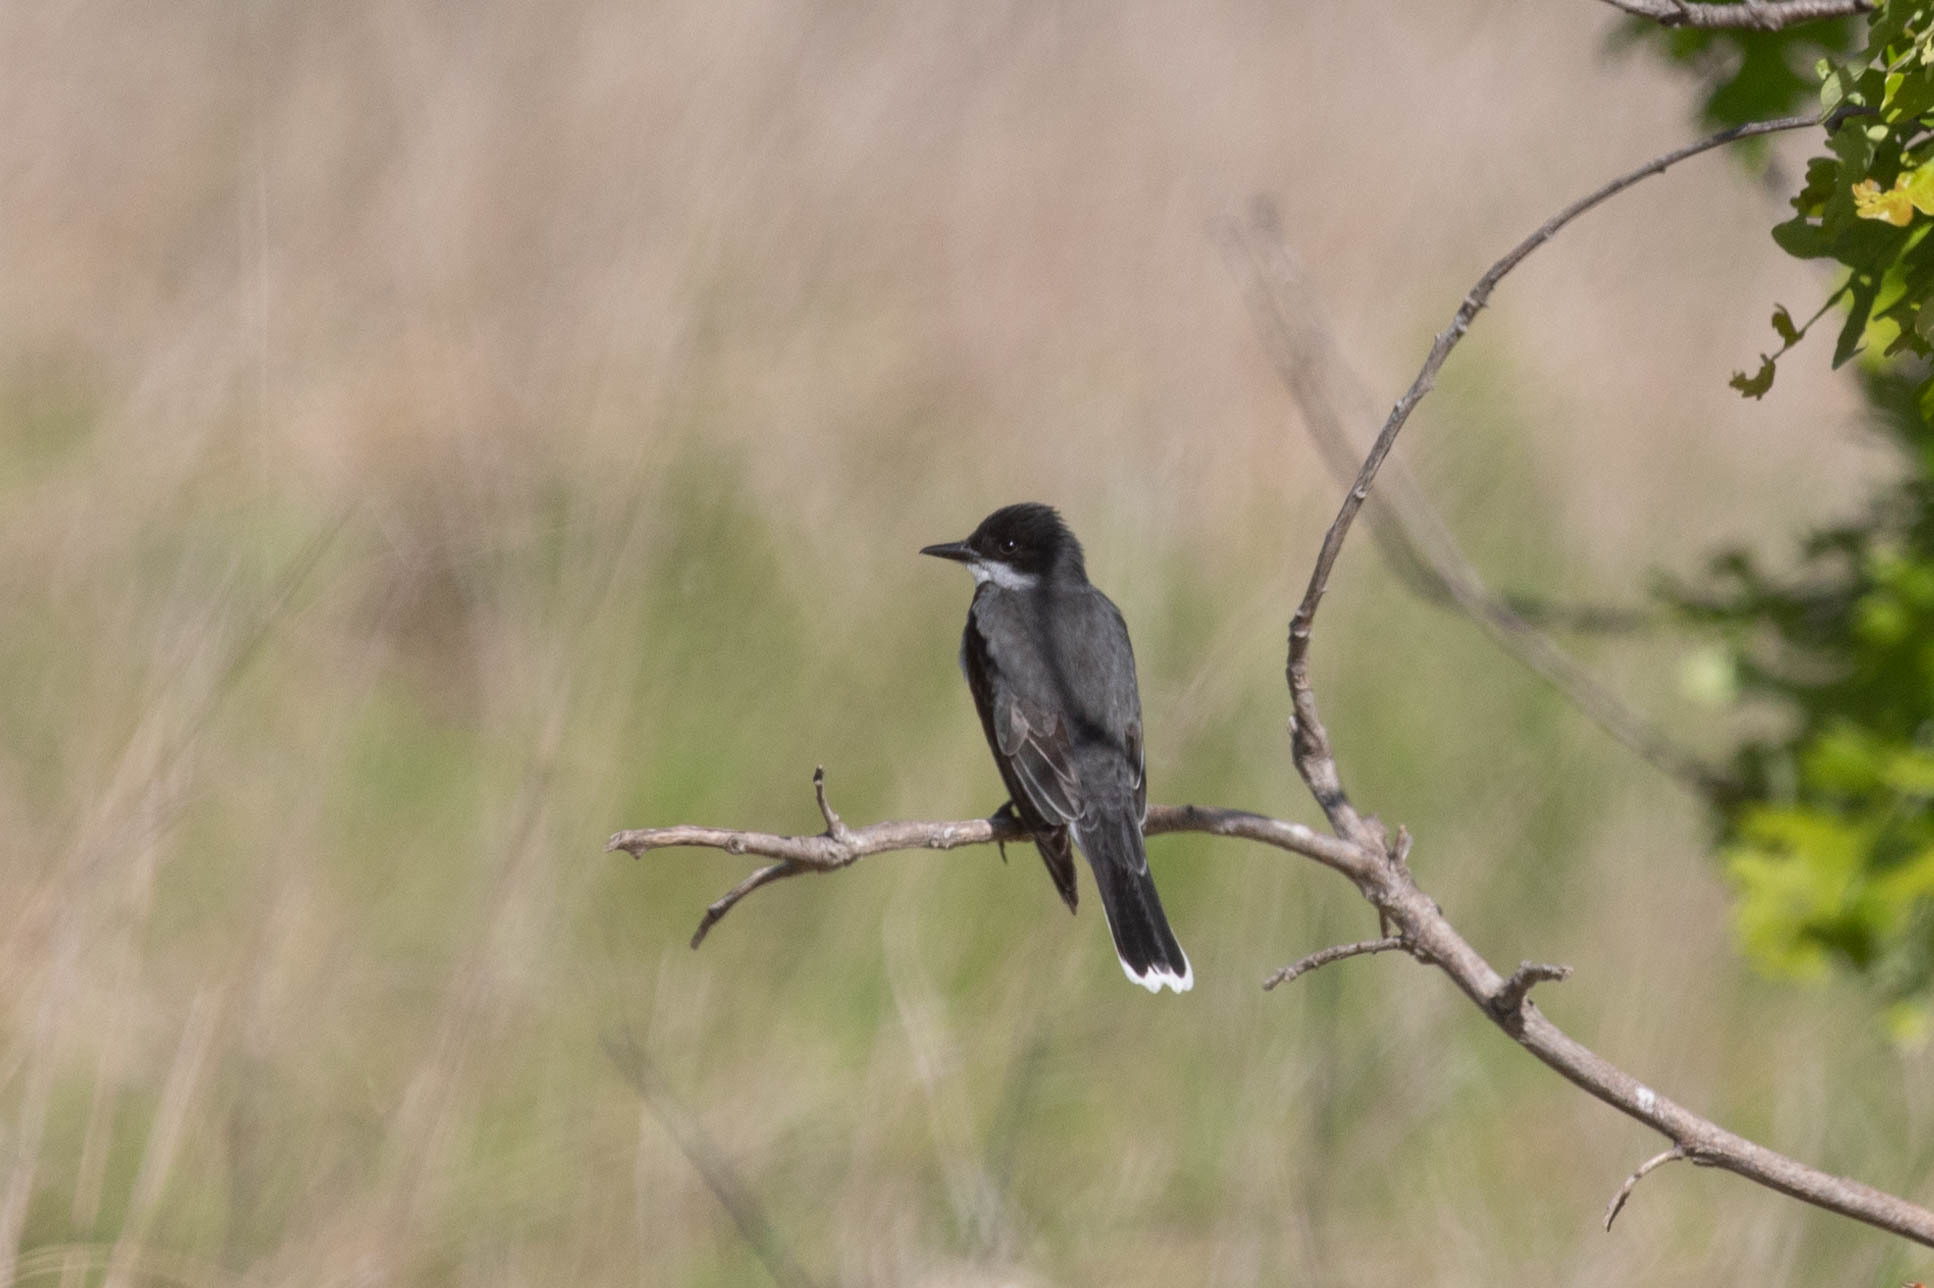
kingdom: Animalia
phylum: Chordata
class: Aves
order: Passeriformes
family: Tyrannidae
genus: Tyrannus
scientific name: Tyrannus tyrannus
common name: Eastern kingbird
